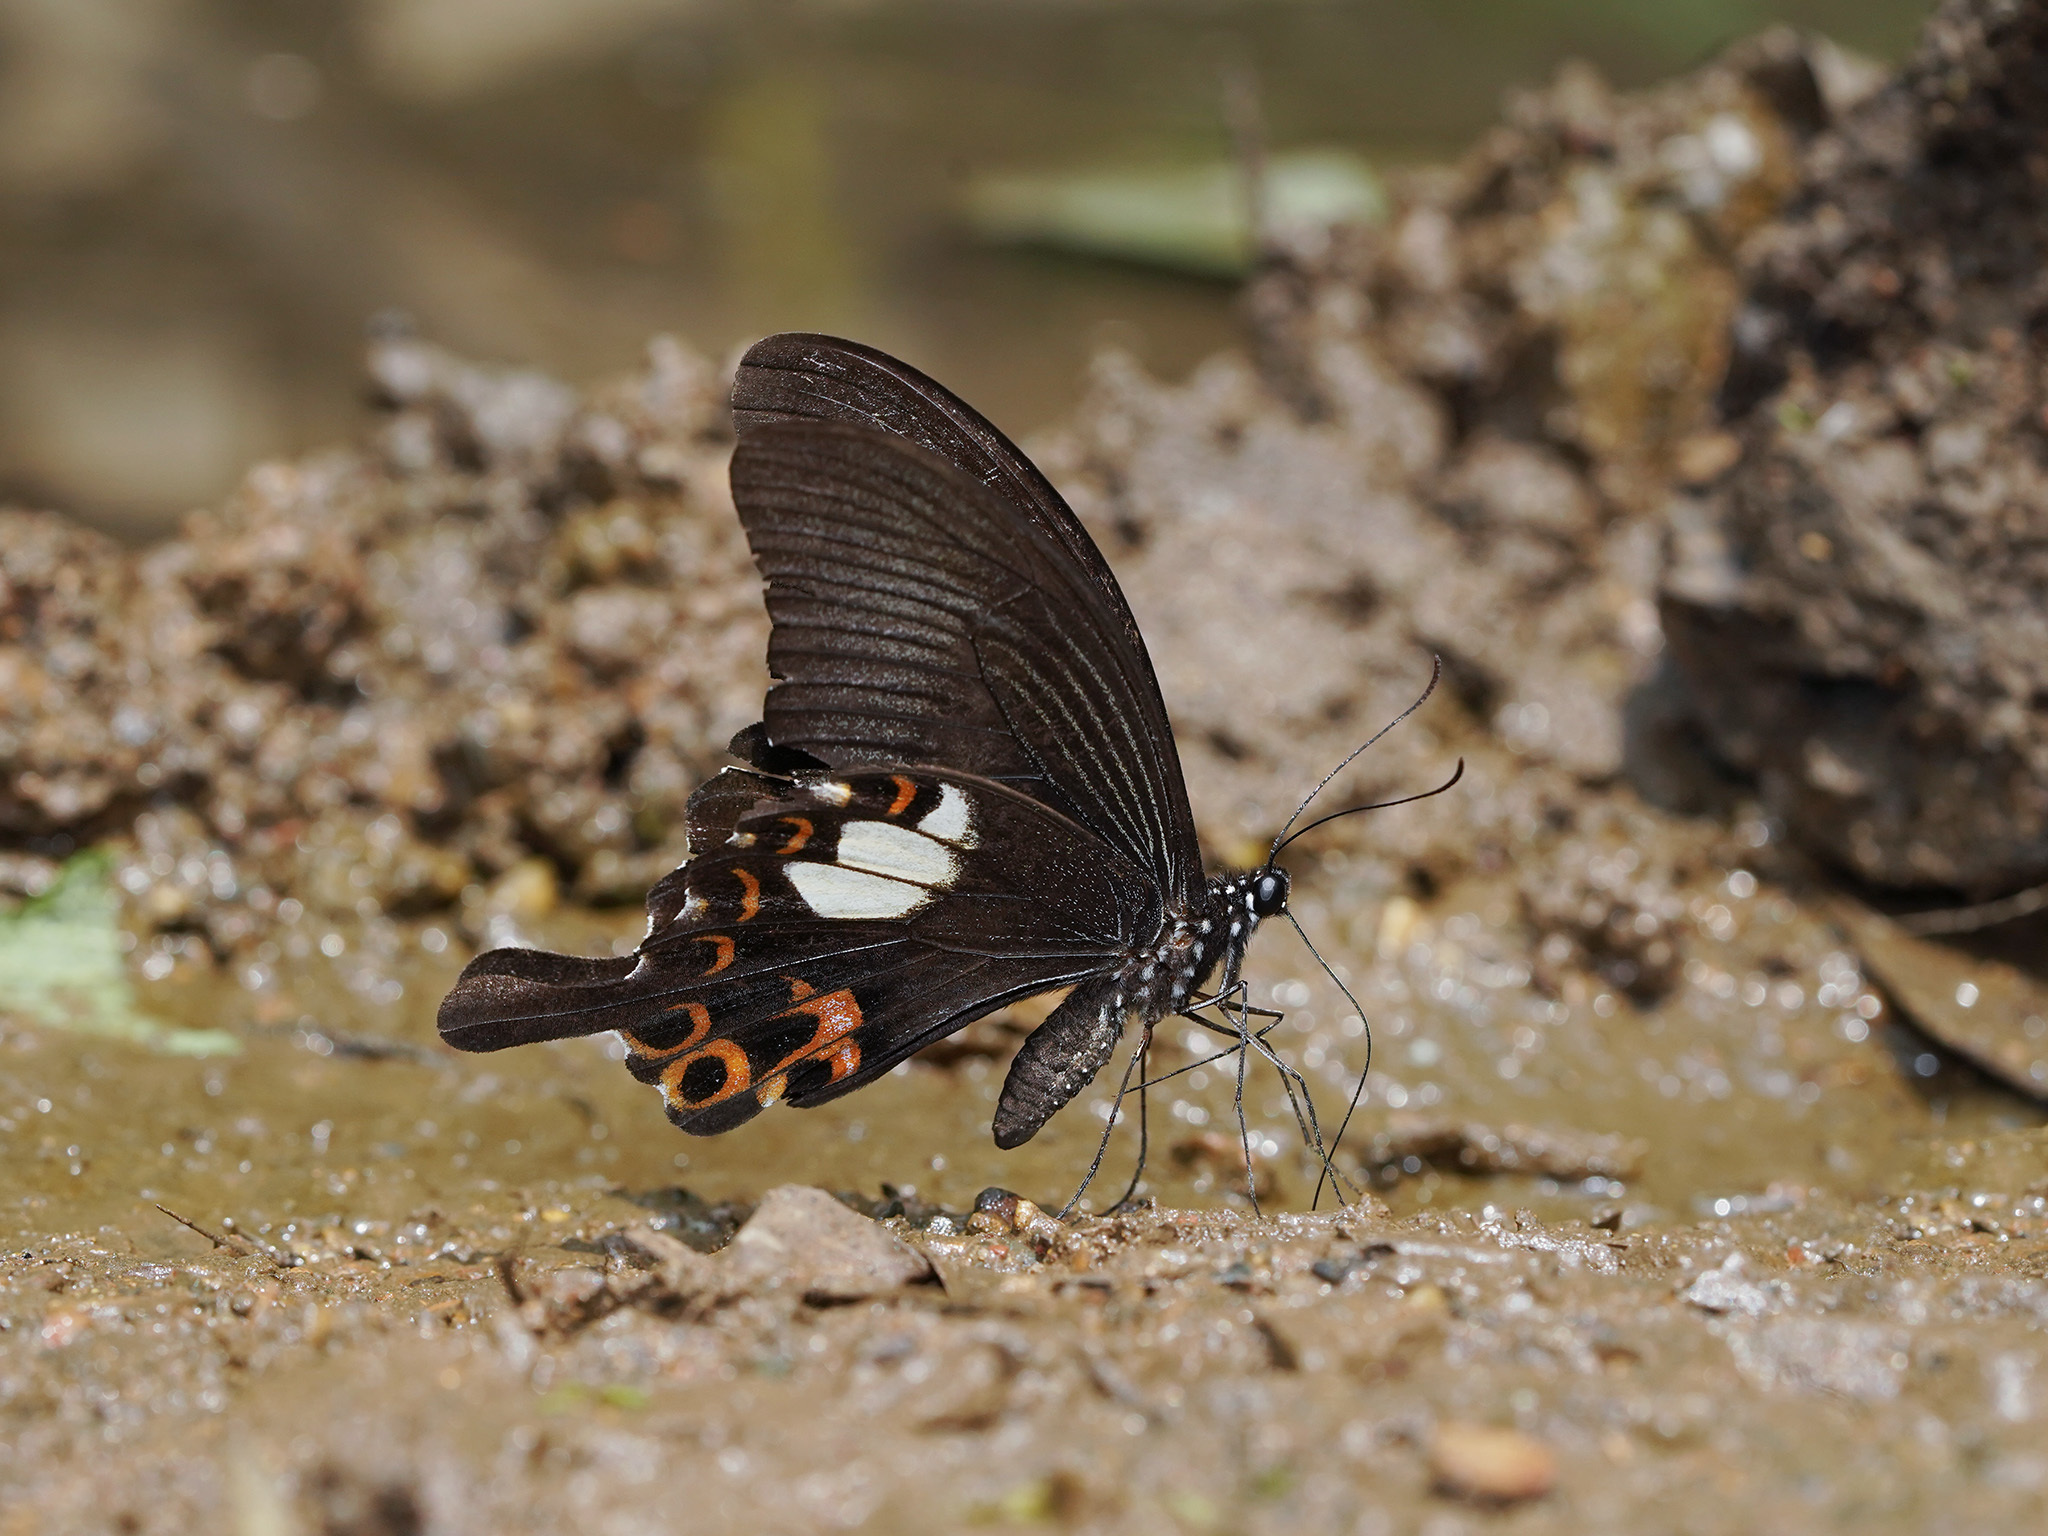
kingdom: Animalia
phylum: Arthropoda
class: Insecta
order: Lepidoptera
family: Papilionidae
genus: Papilio
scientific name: Papilio helenus
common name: Red helen
